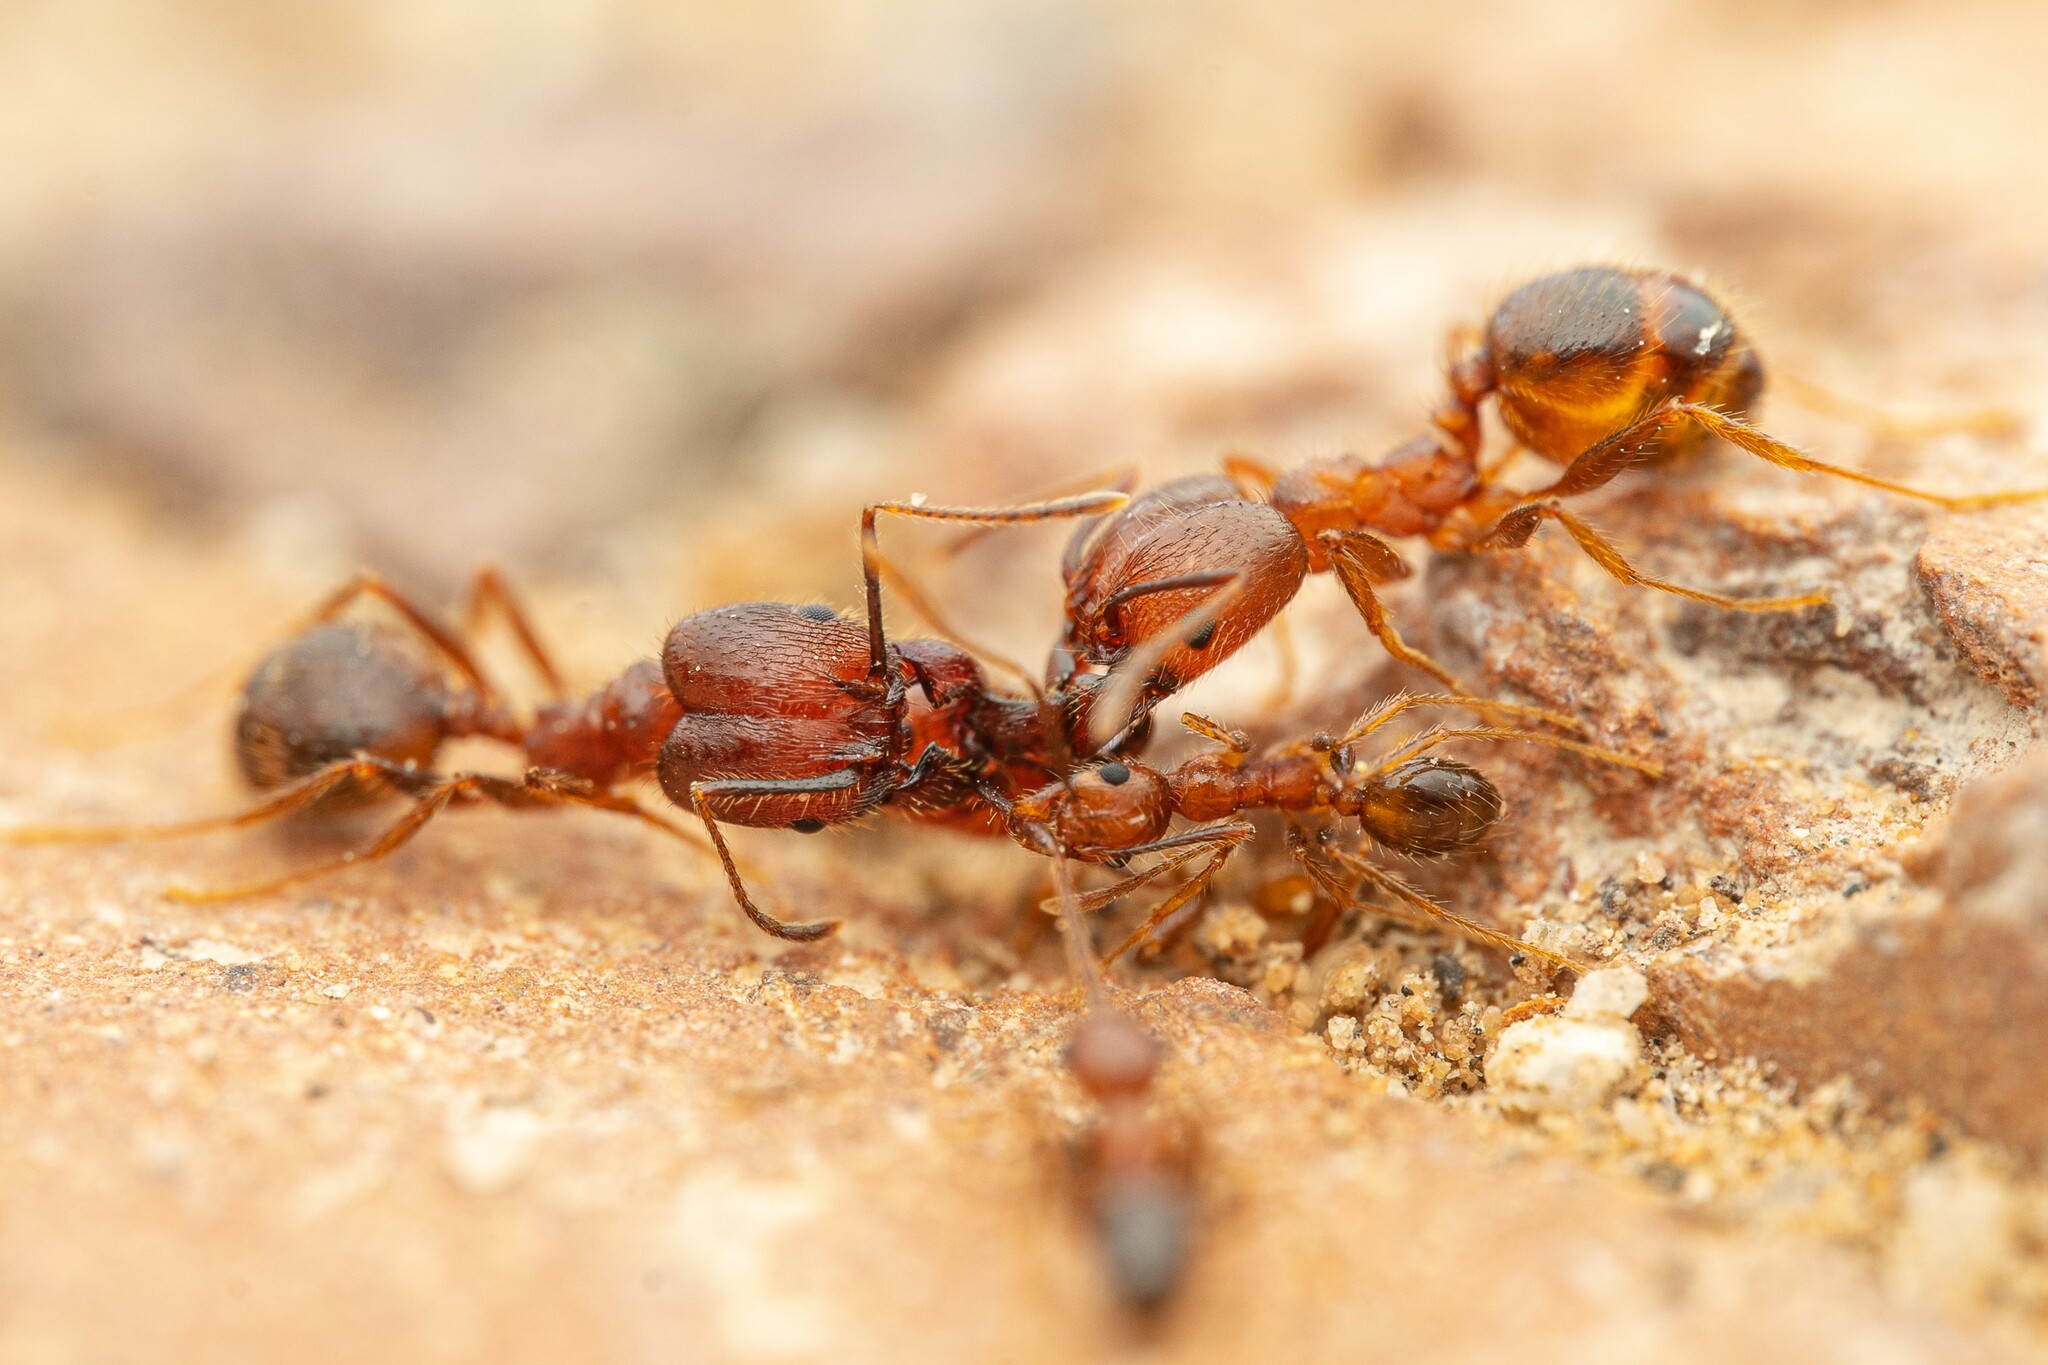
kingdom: Animalia
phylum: Arthropoda
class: Insecta
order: Hymenoptera
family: Formicidae
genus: Pheidole
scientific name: Pheidole hyatti
